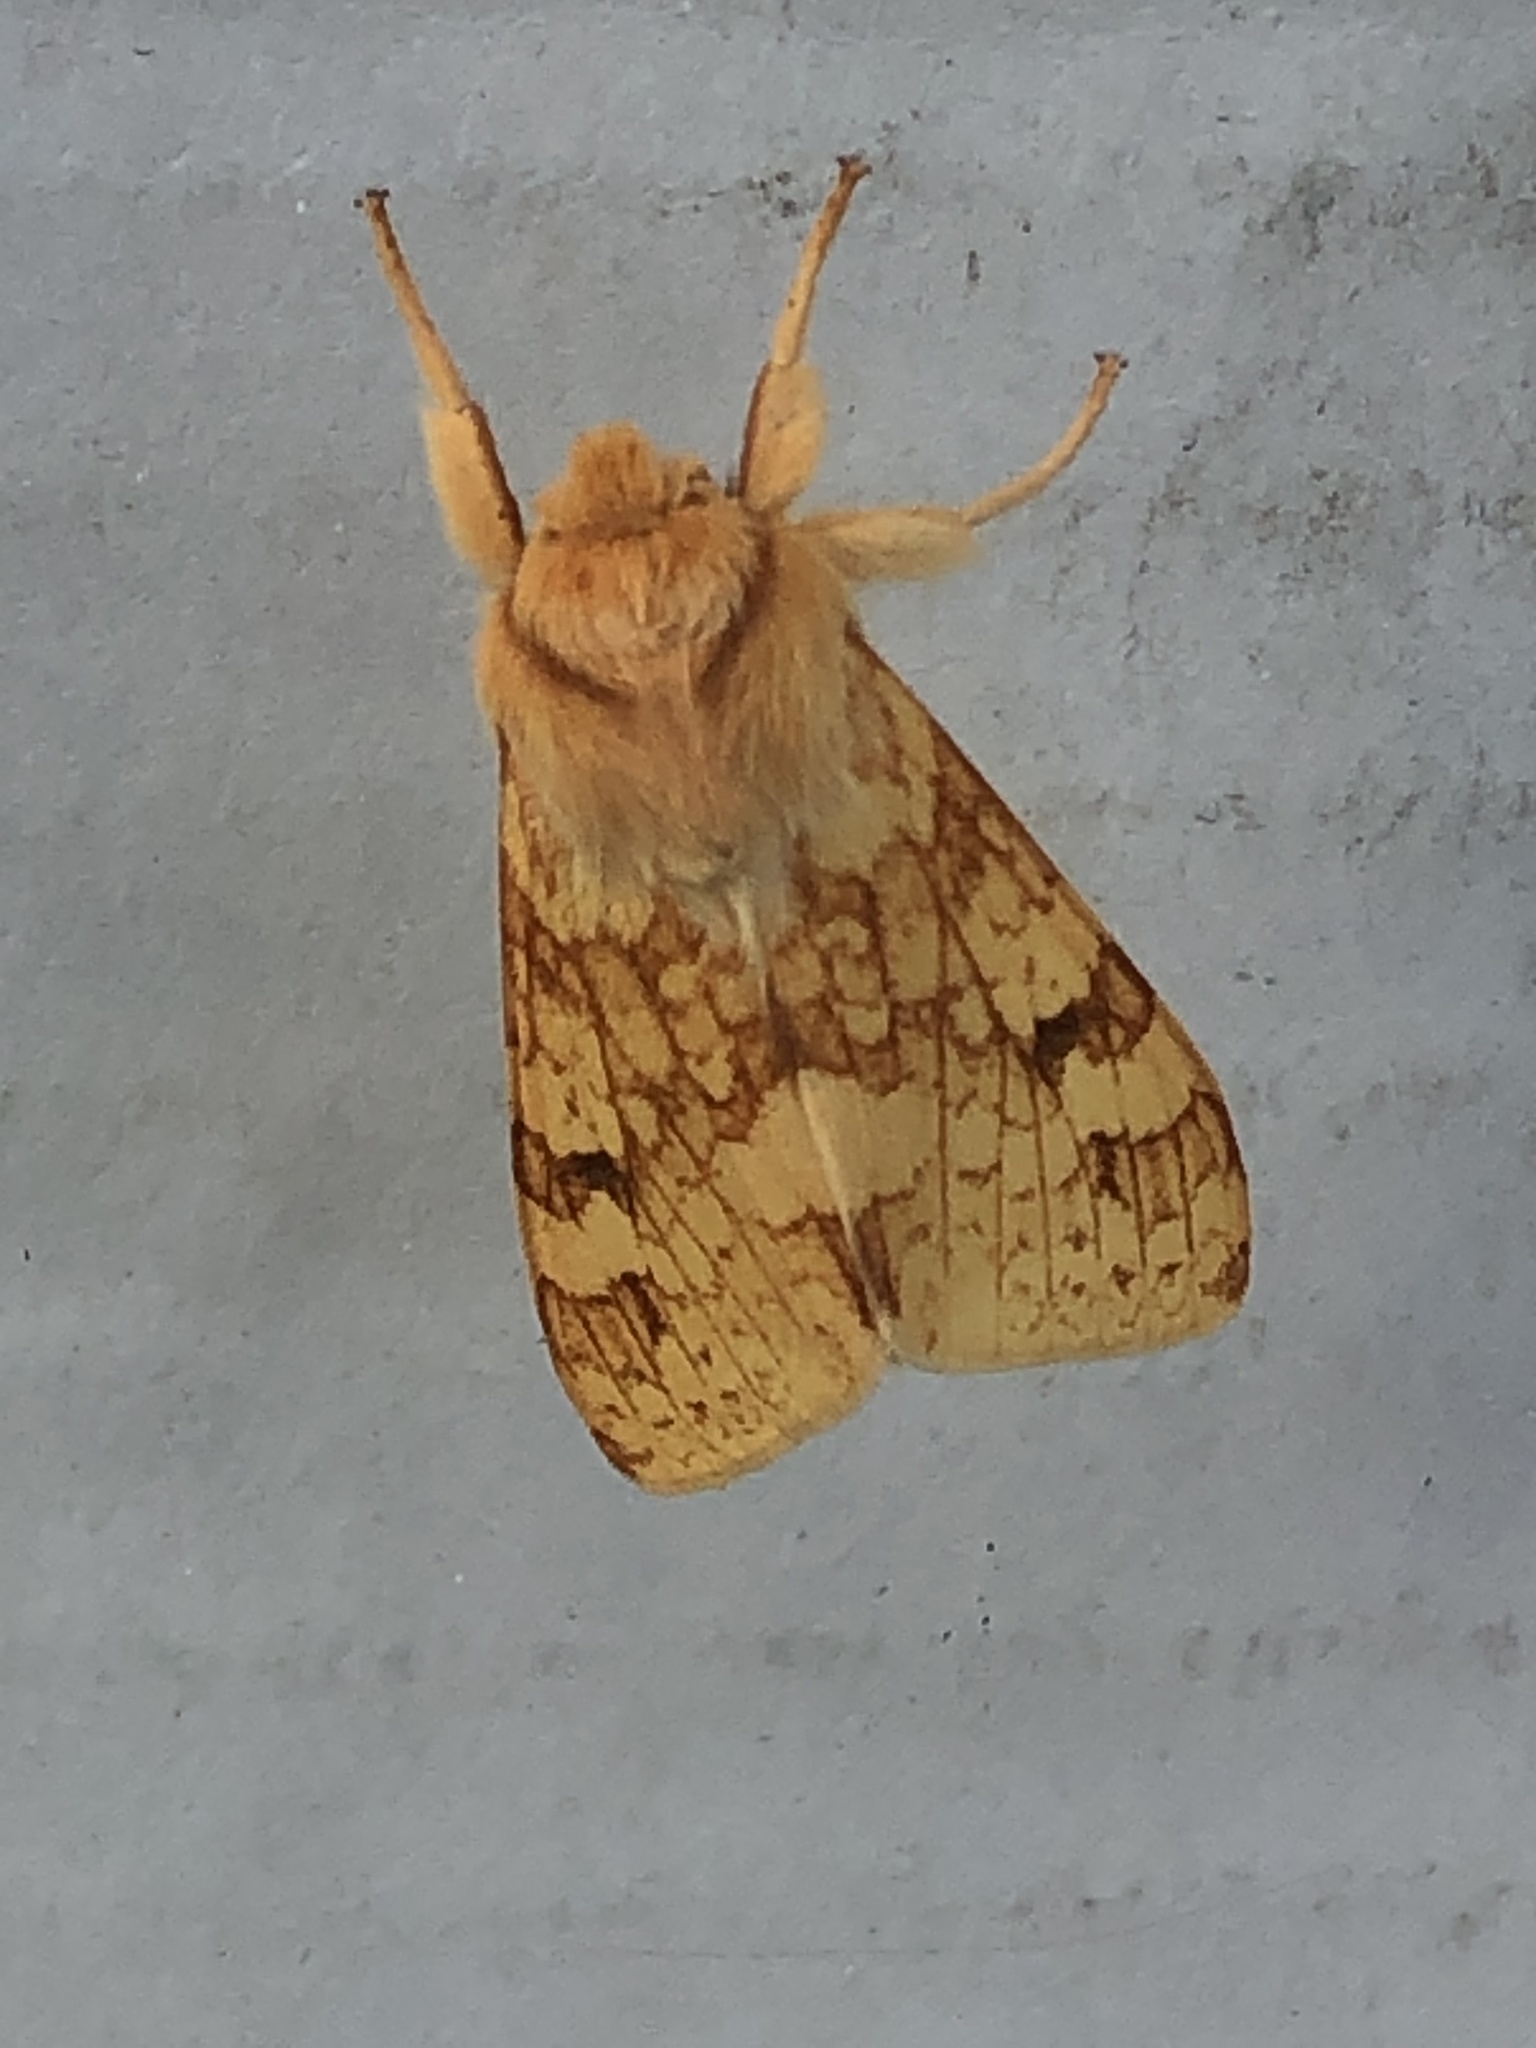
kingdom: Animalia
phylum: Arthropoda
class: Insecta
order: Lepidoptera
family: Erebidae
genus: Lophocampa
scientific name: Lophocampa maculata
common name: Spotted tussock moth
